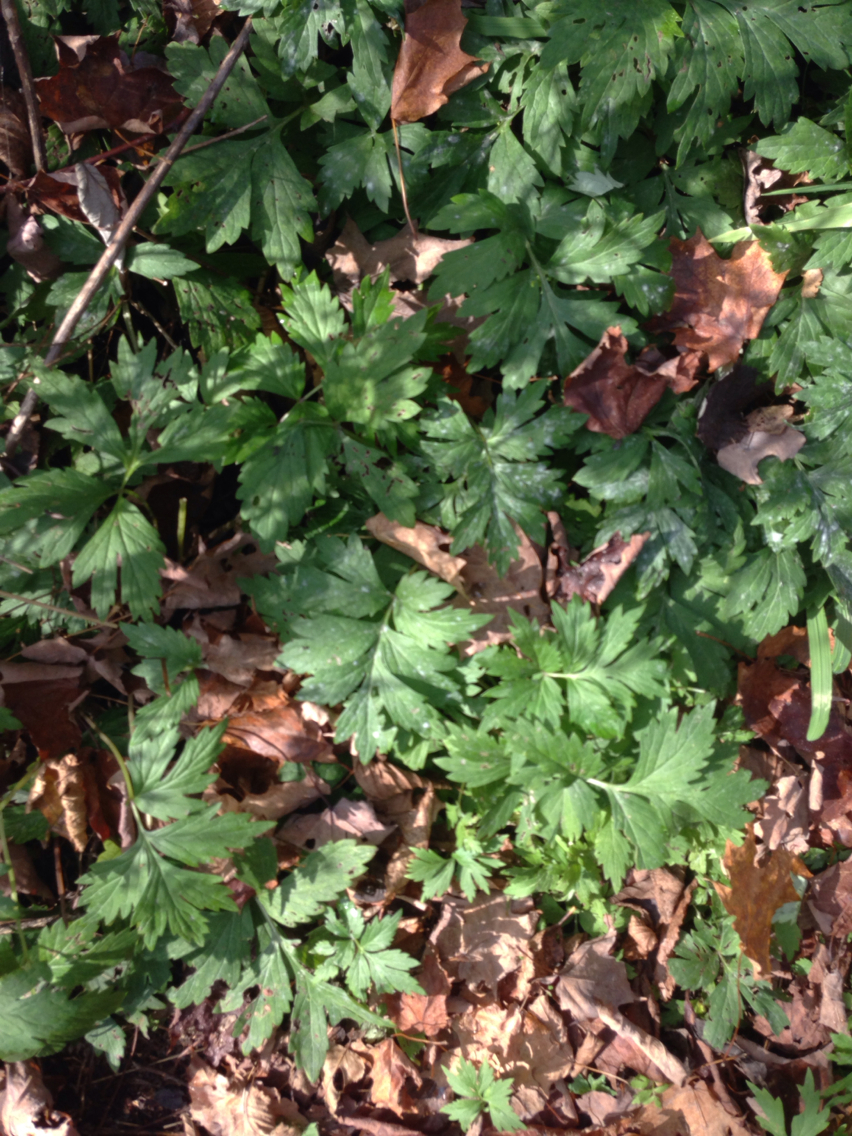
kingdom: Plantae
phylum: Tracheophyta
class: Magnoliopsida
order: Boraginales
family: Hydrophyllaceae
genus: Hydrophyllum
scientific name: Hydrophyllum virginianum
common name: Virginia waterleaf
